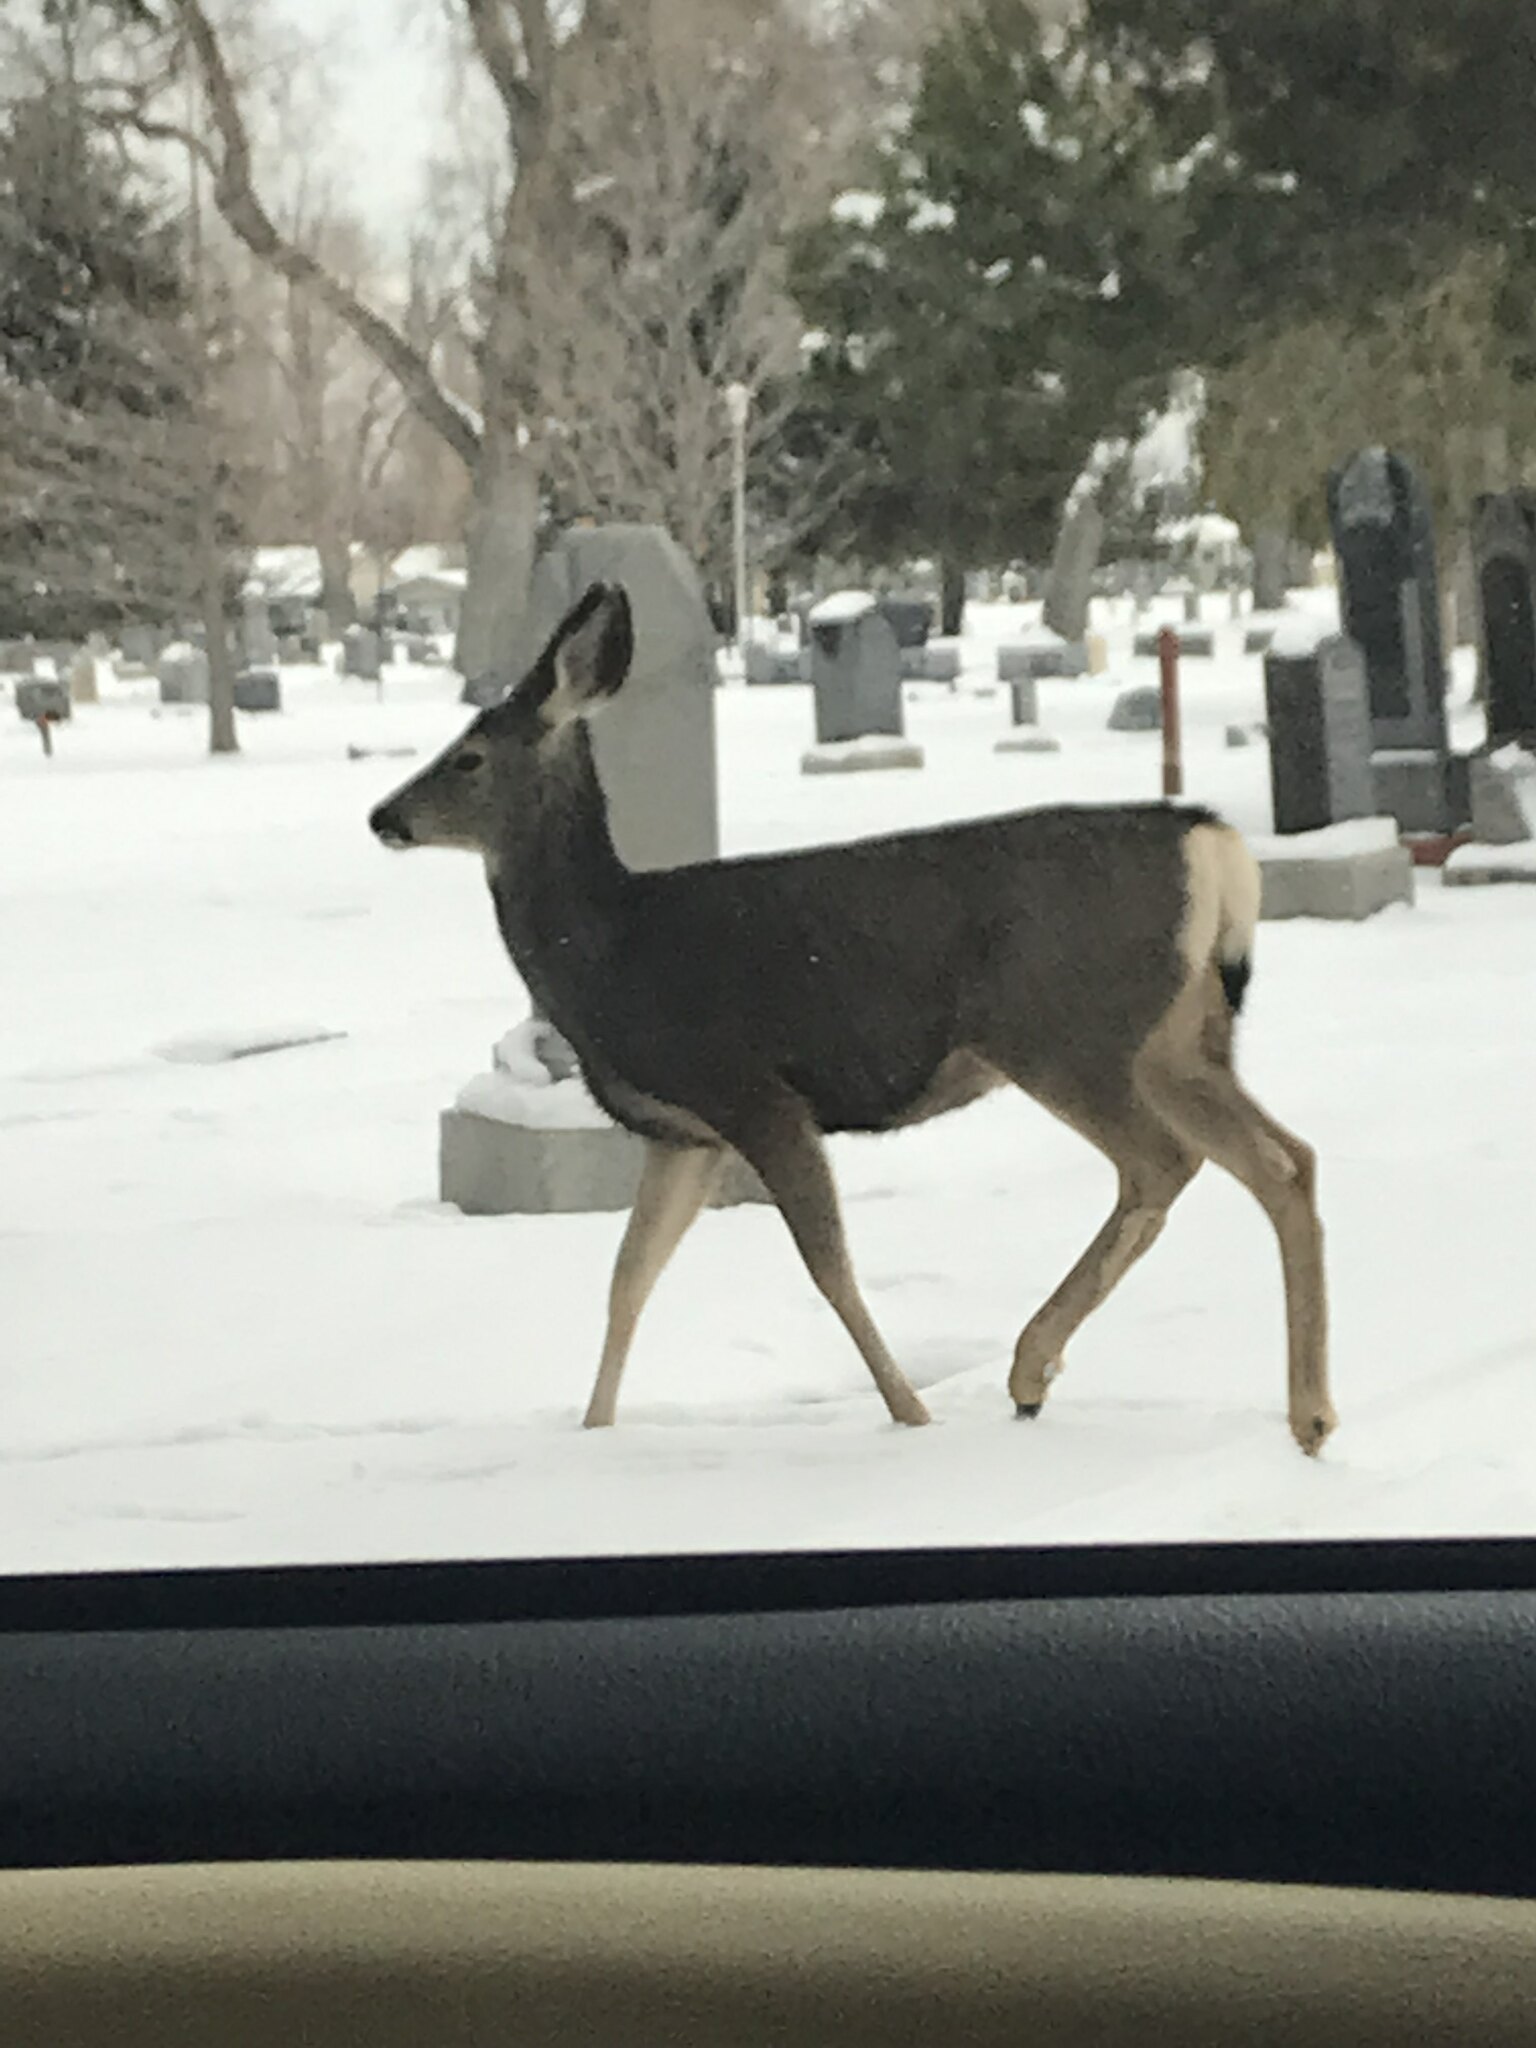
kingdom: Animalia
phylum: Chordata
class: Mammalia
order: Artiodactyla
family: Cervidae
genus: Odocoileus
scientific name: Odocoileus hemionus
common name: Mule deer
